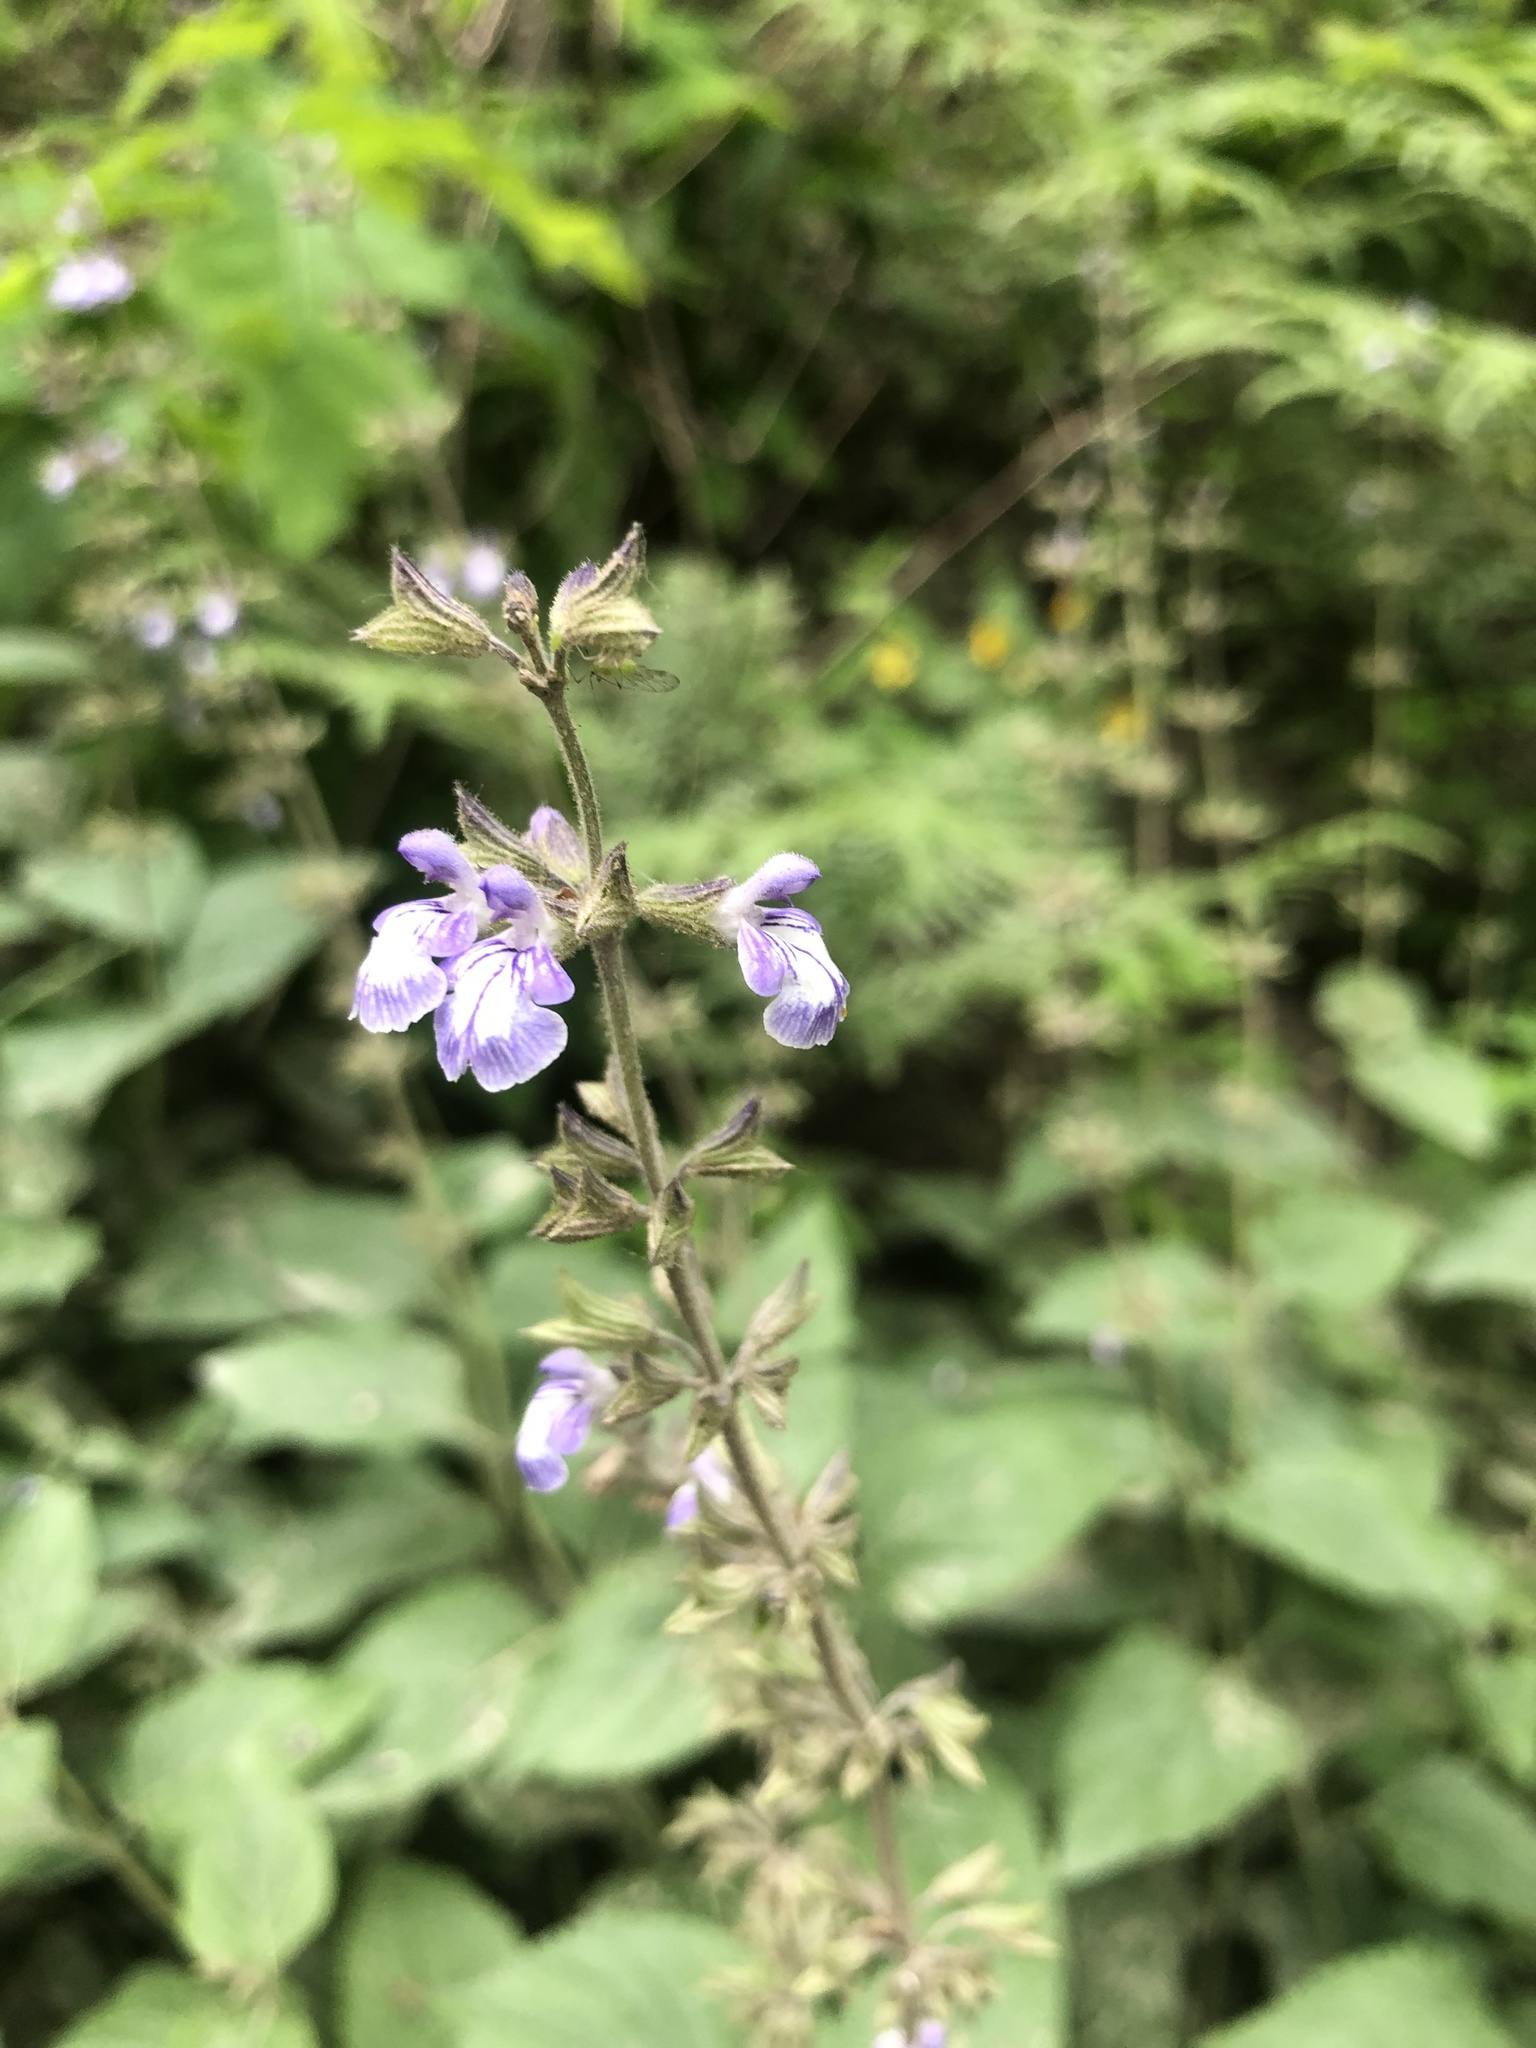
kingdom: Plantae
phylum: Tracheophyta
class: Magnoliopsida
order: Lamiales
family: Lamiaceae
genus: Salvia
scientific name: Salvia urticifolia
